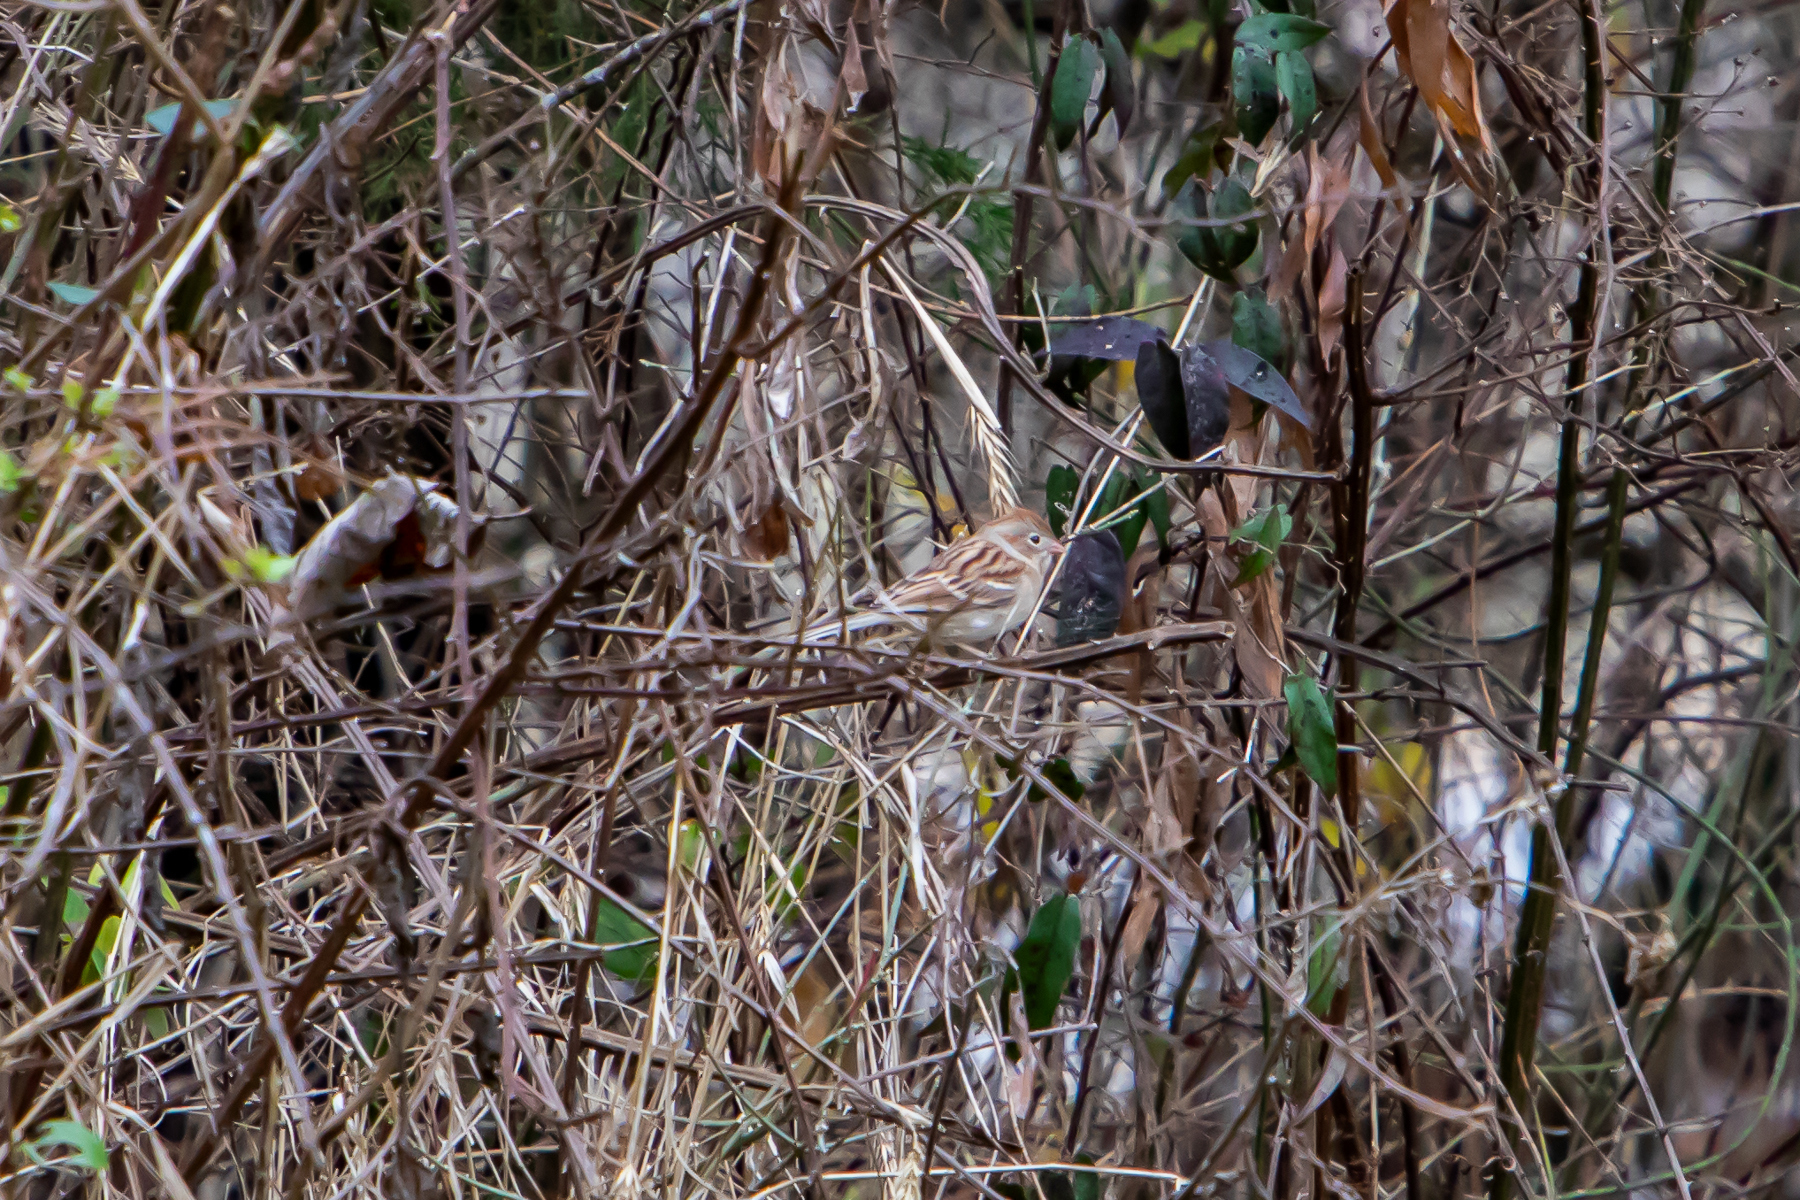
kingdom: Animalia
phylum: Chordata
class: Aves
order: Passeriformes
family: Passerellidae
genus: Spizella
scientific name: Spizella pusilla
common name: Field sparrow
